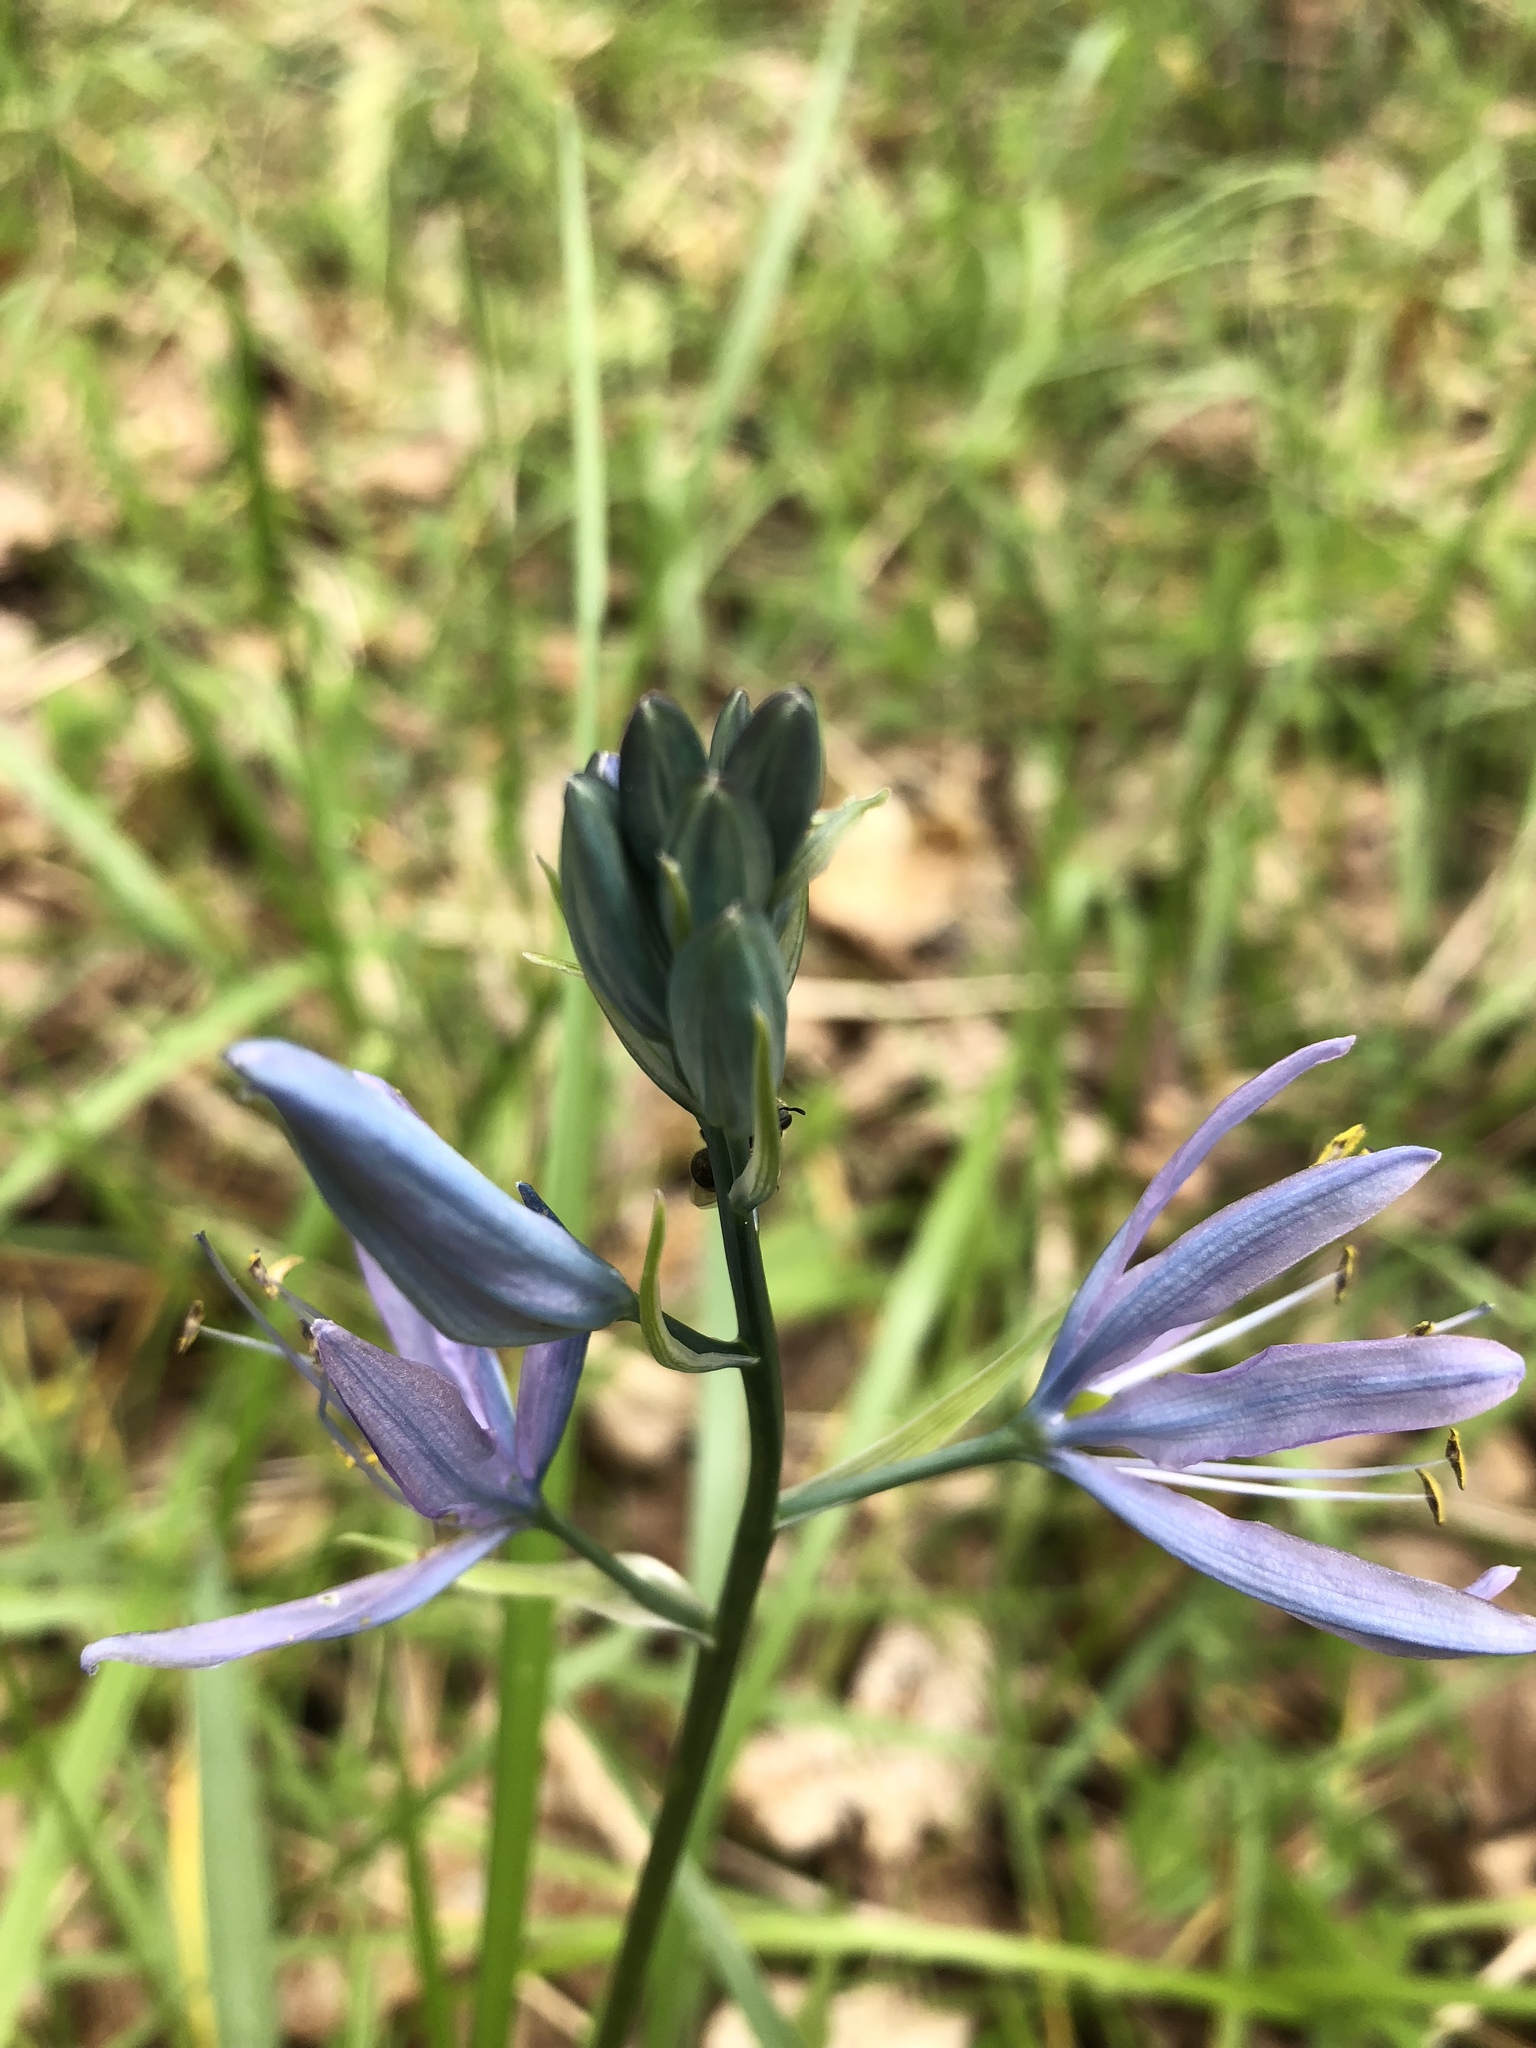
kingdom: Plantae
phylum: Tracheophyta
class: Liliopsida
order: Asparagales
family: Asparagaceae
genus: Camassia
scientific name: Camassia quamash
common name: Common camas
